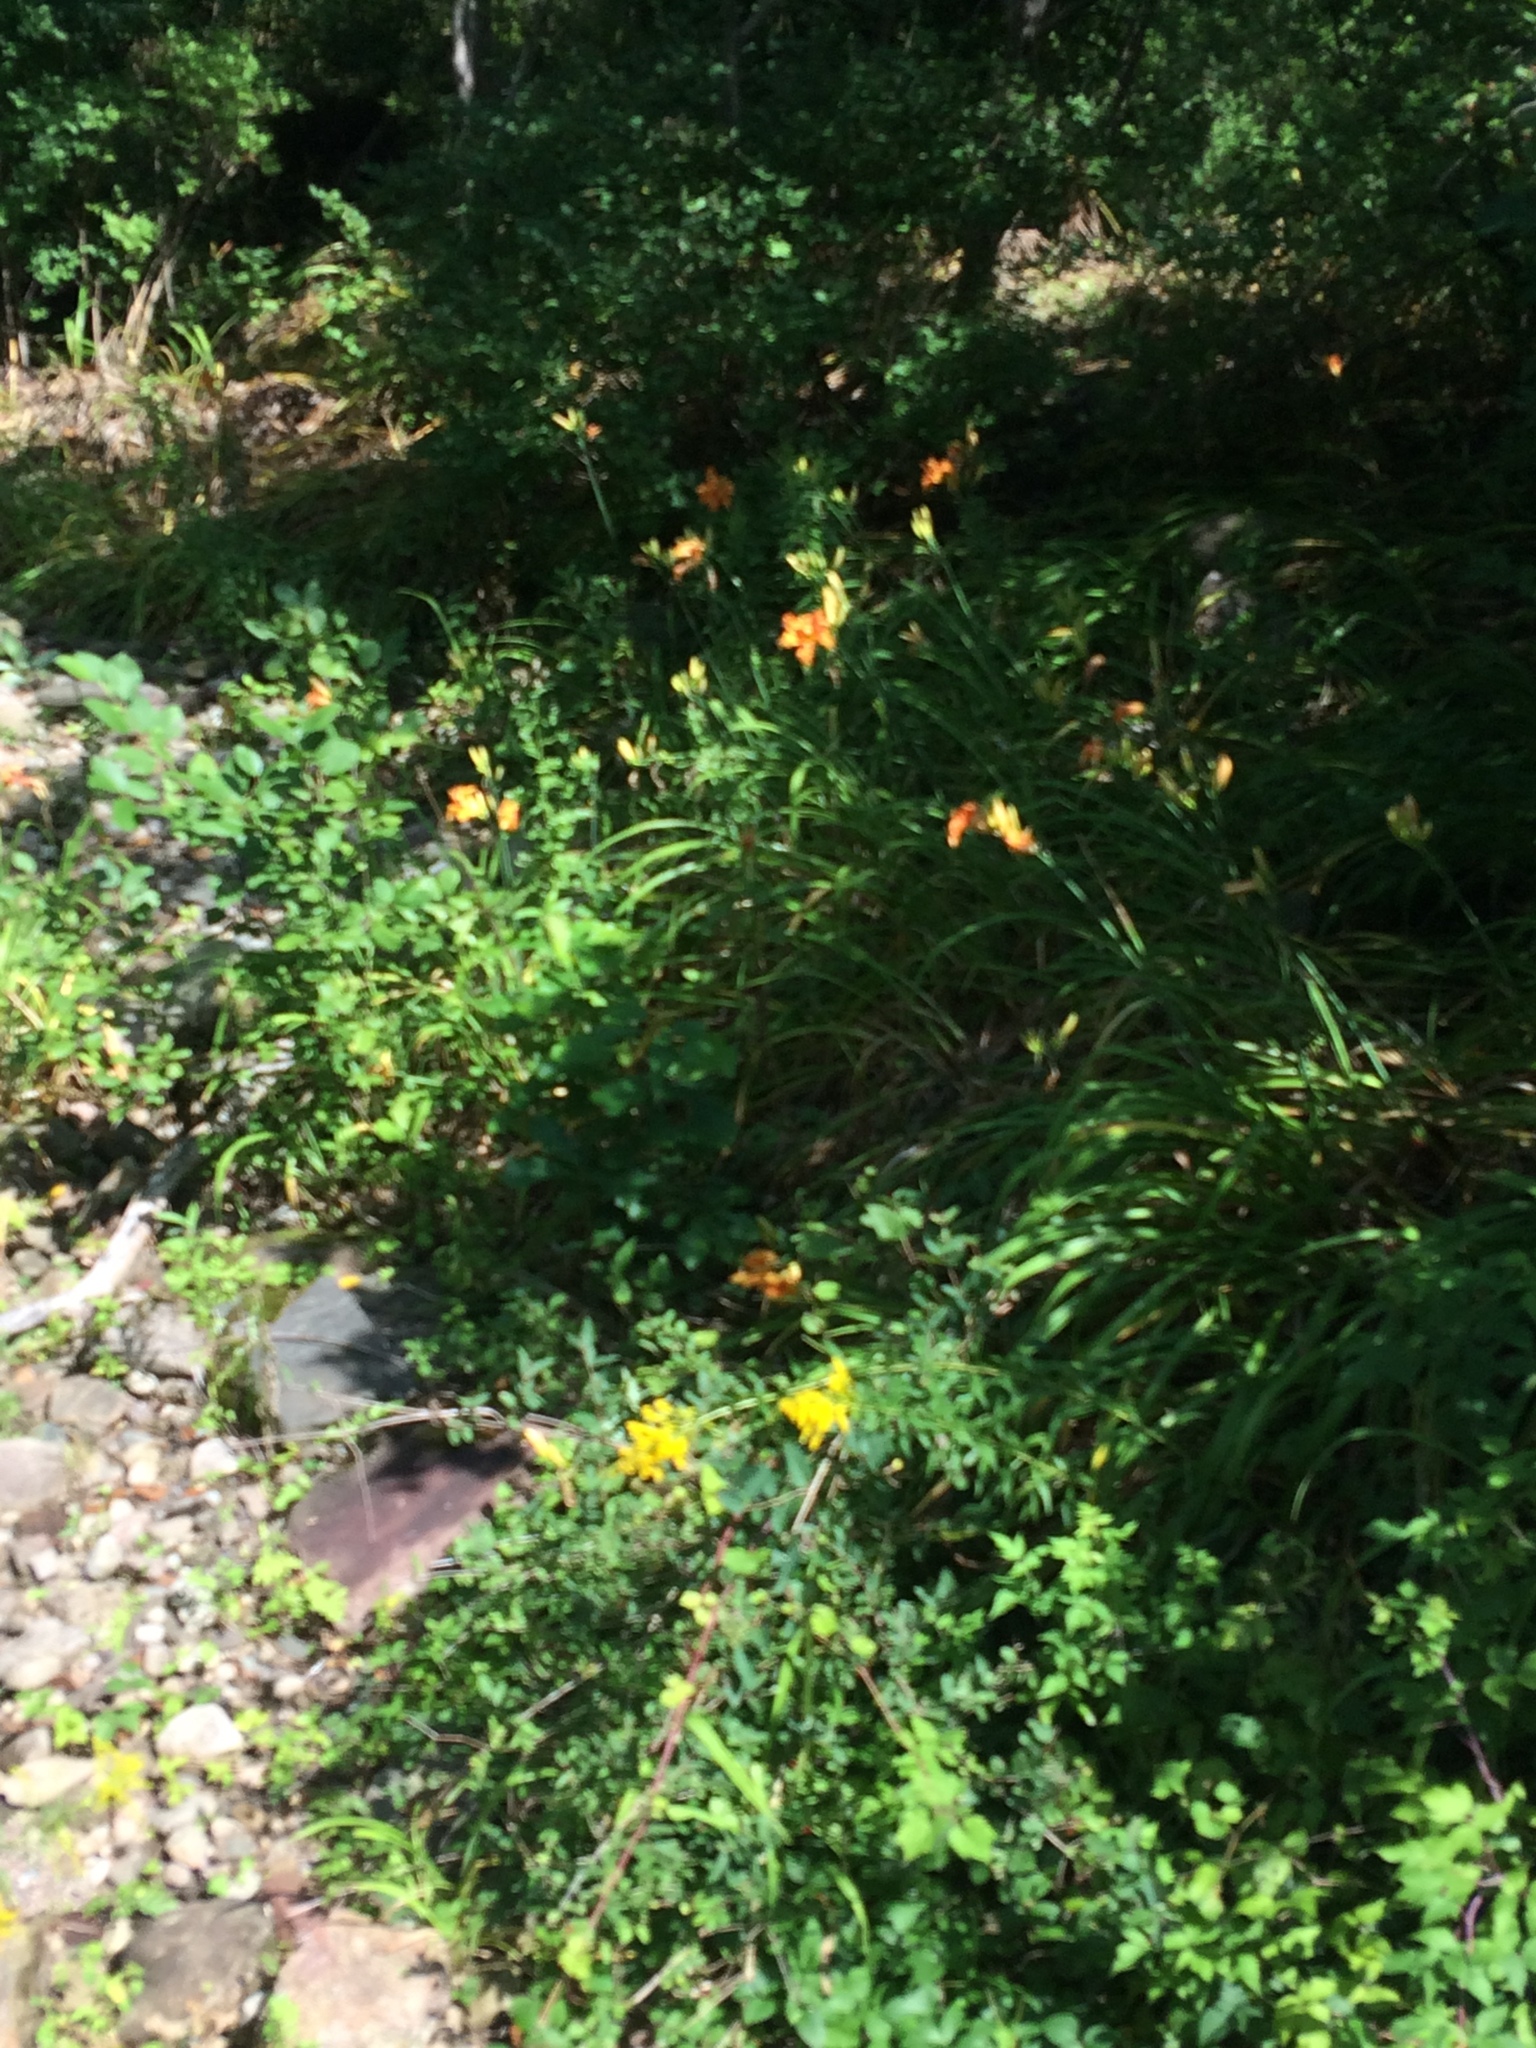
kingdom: Plantae
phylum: Tracheophyta
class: Liliopsida
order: Asparagales
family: Asphodelaceae
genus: Hemerocallis
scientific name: Hemerocallis fulva
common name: Orange day-lily
